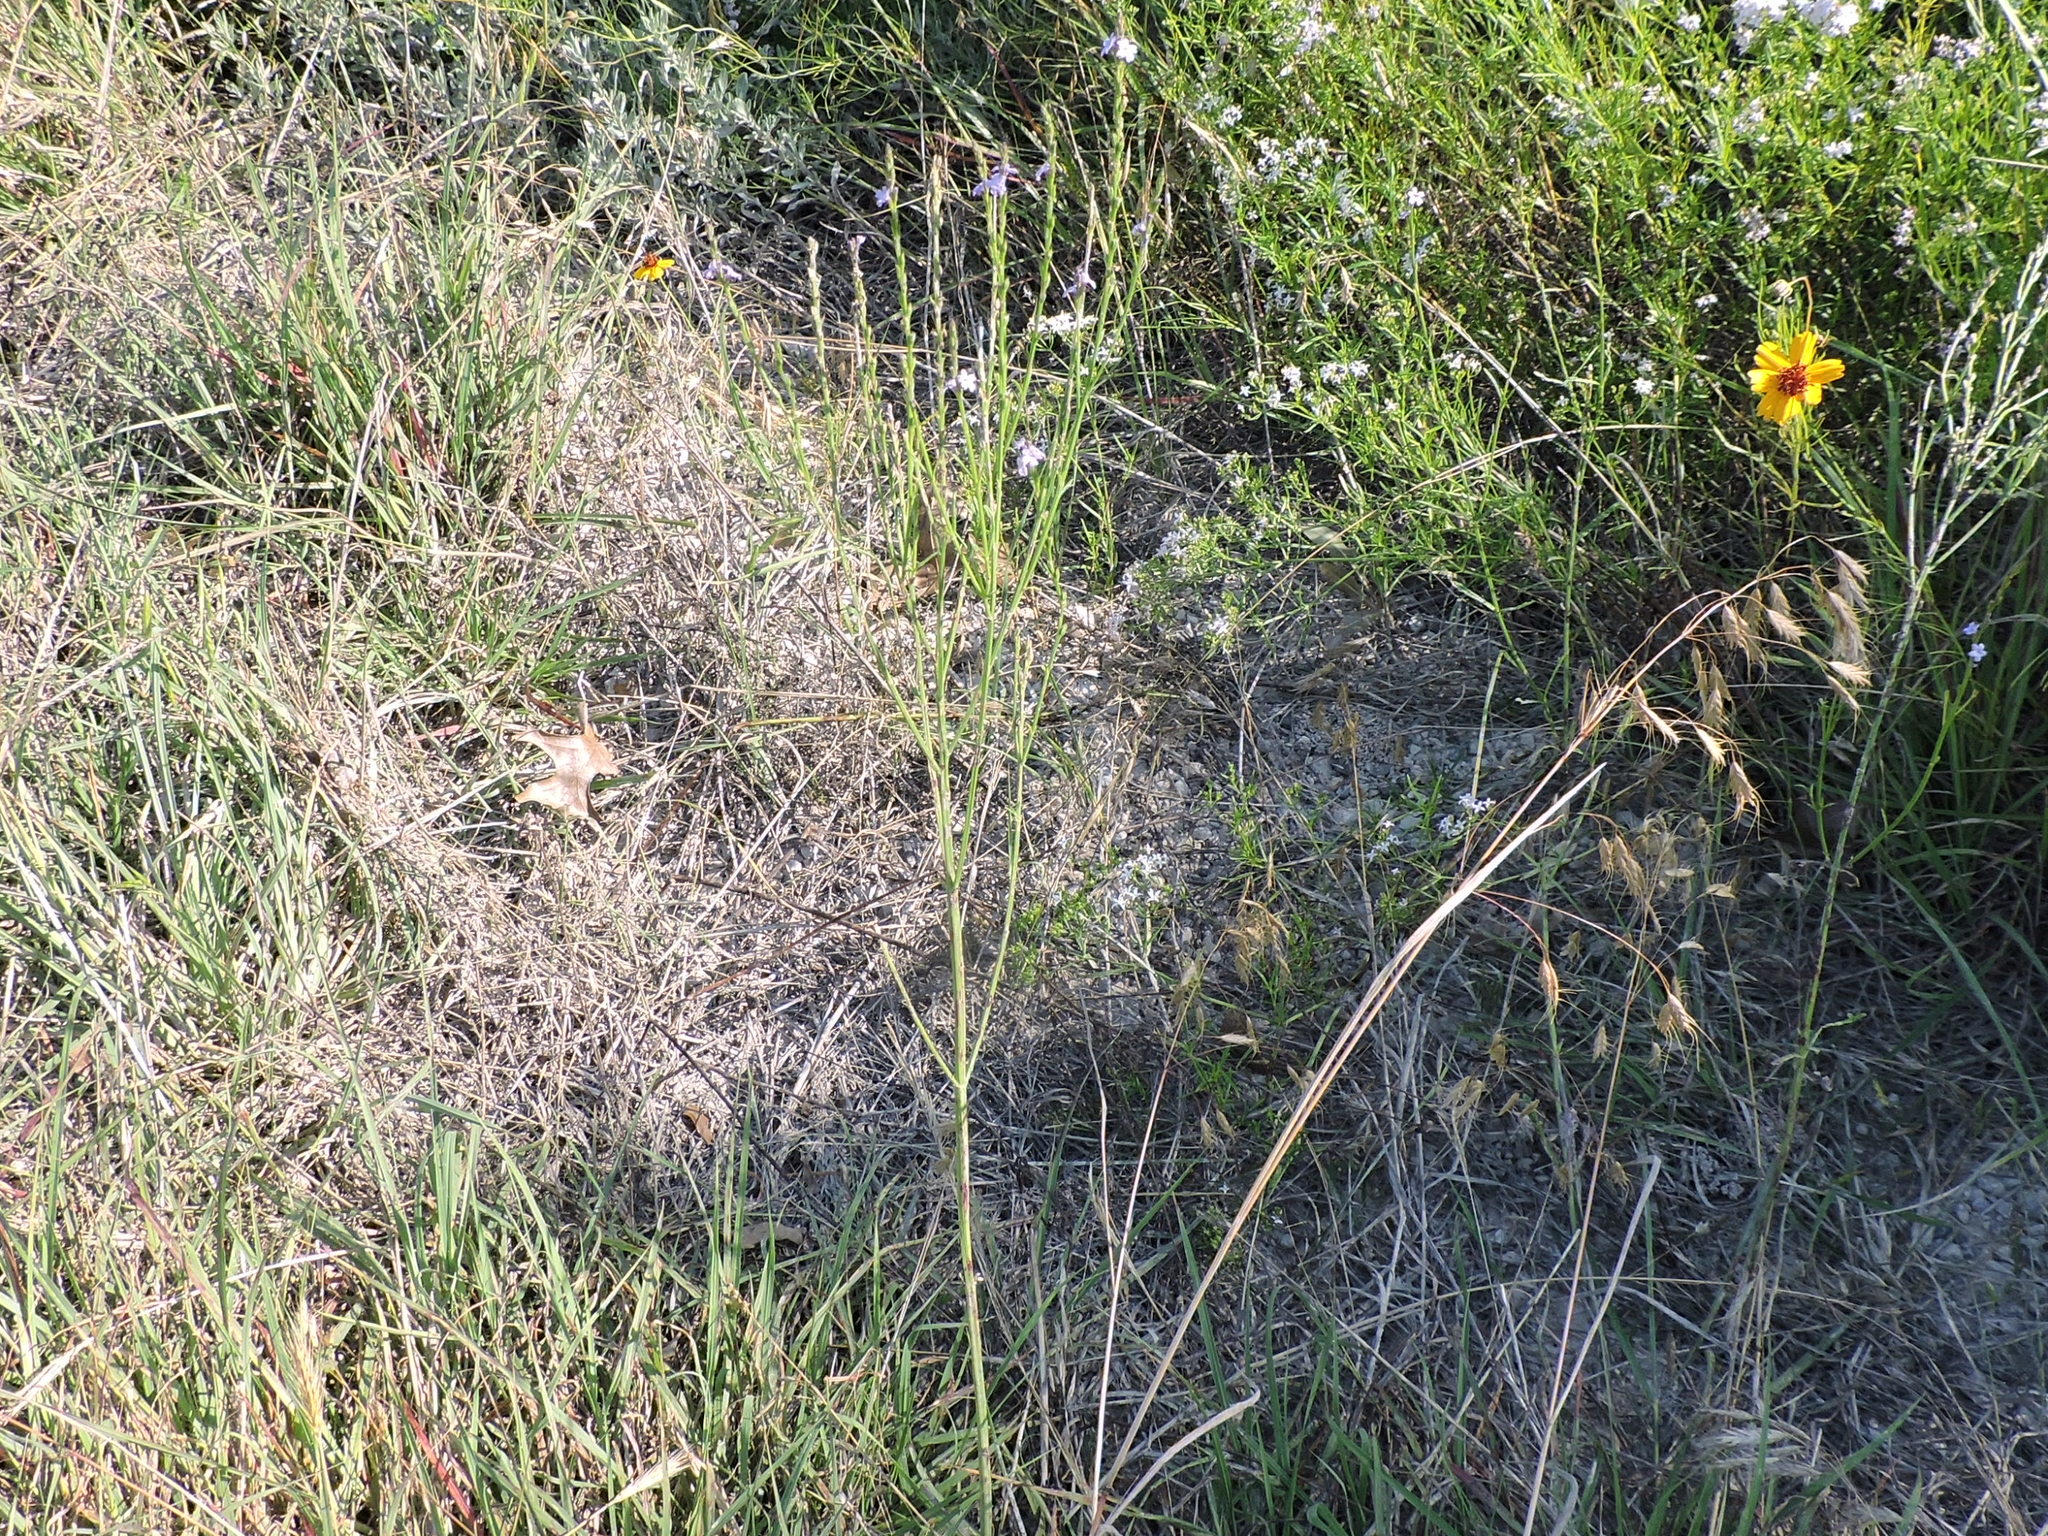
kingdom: Plantae
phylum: Tracheophyta
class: Magnoliopsida
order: Lamiales
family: Verbenaceae
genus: Verbena
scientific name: Verbena halei
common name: Texas vervain
